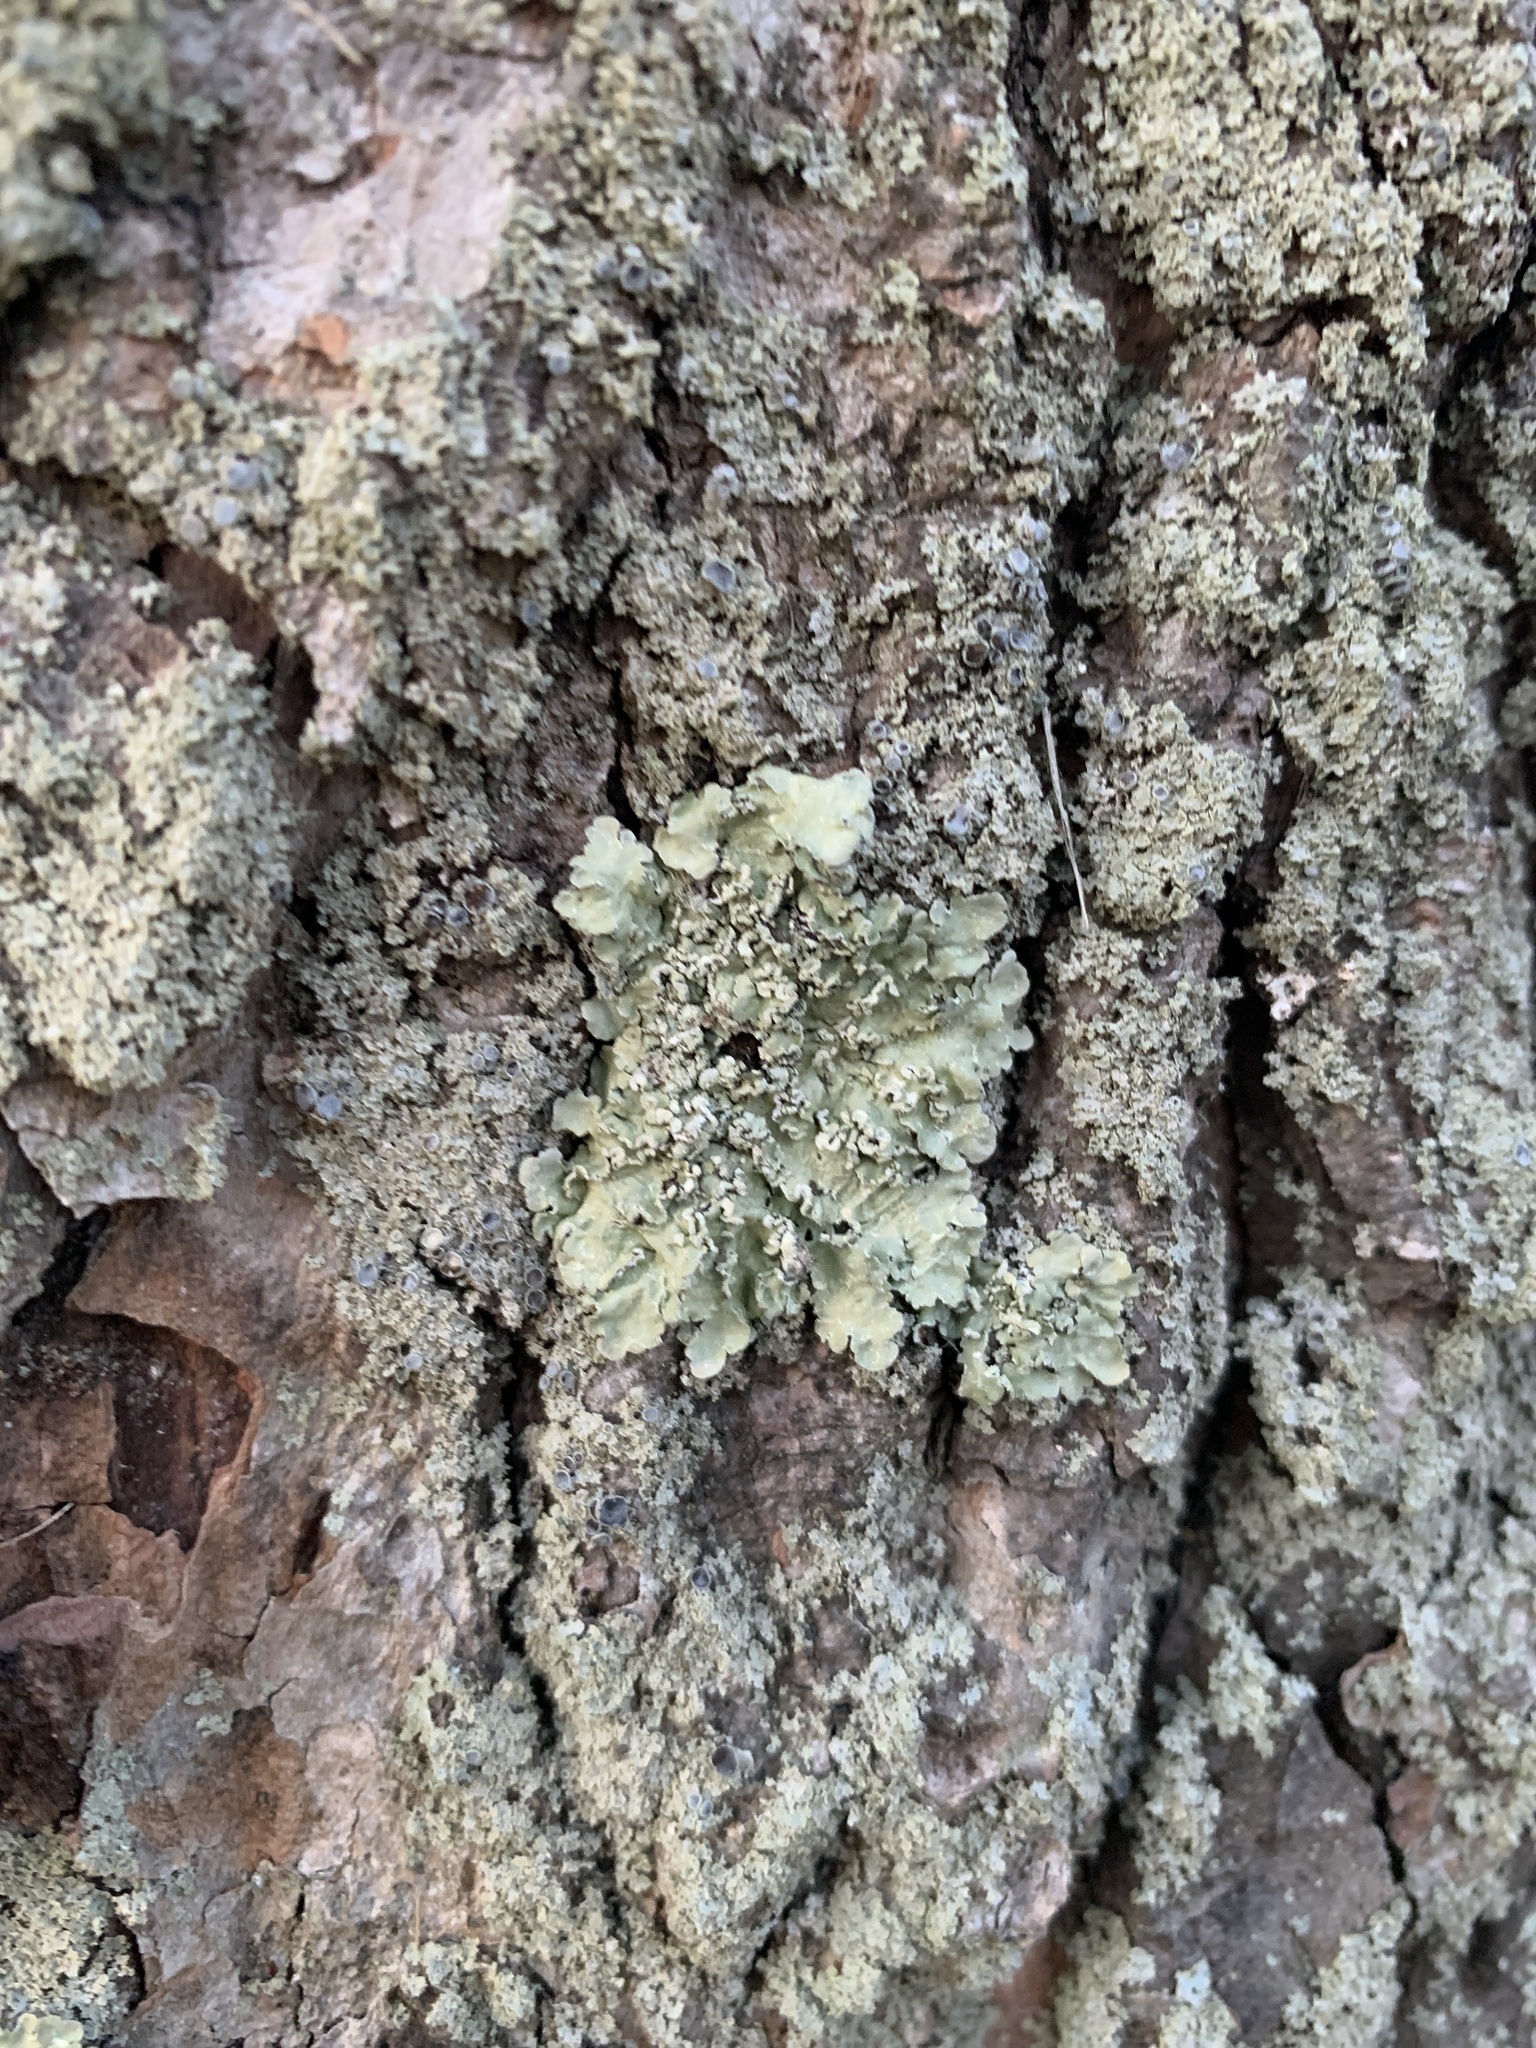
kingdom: Fungi
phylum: Ascomycota
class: Lecanoromycetes
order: Lecanorales
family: Parmeliaceae
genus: Flavopunctelia
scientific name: Flavopunctelia soredica
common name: Powder-edged speckled greenshield
